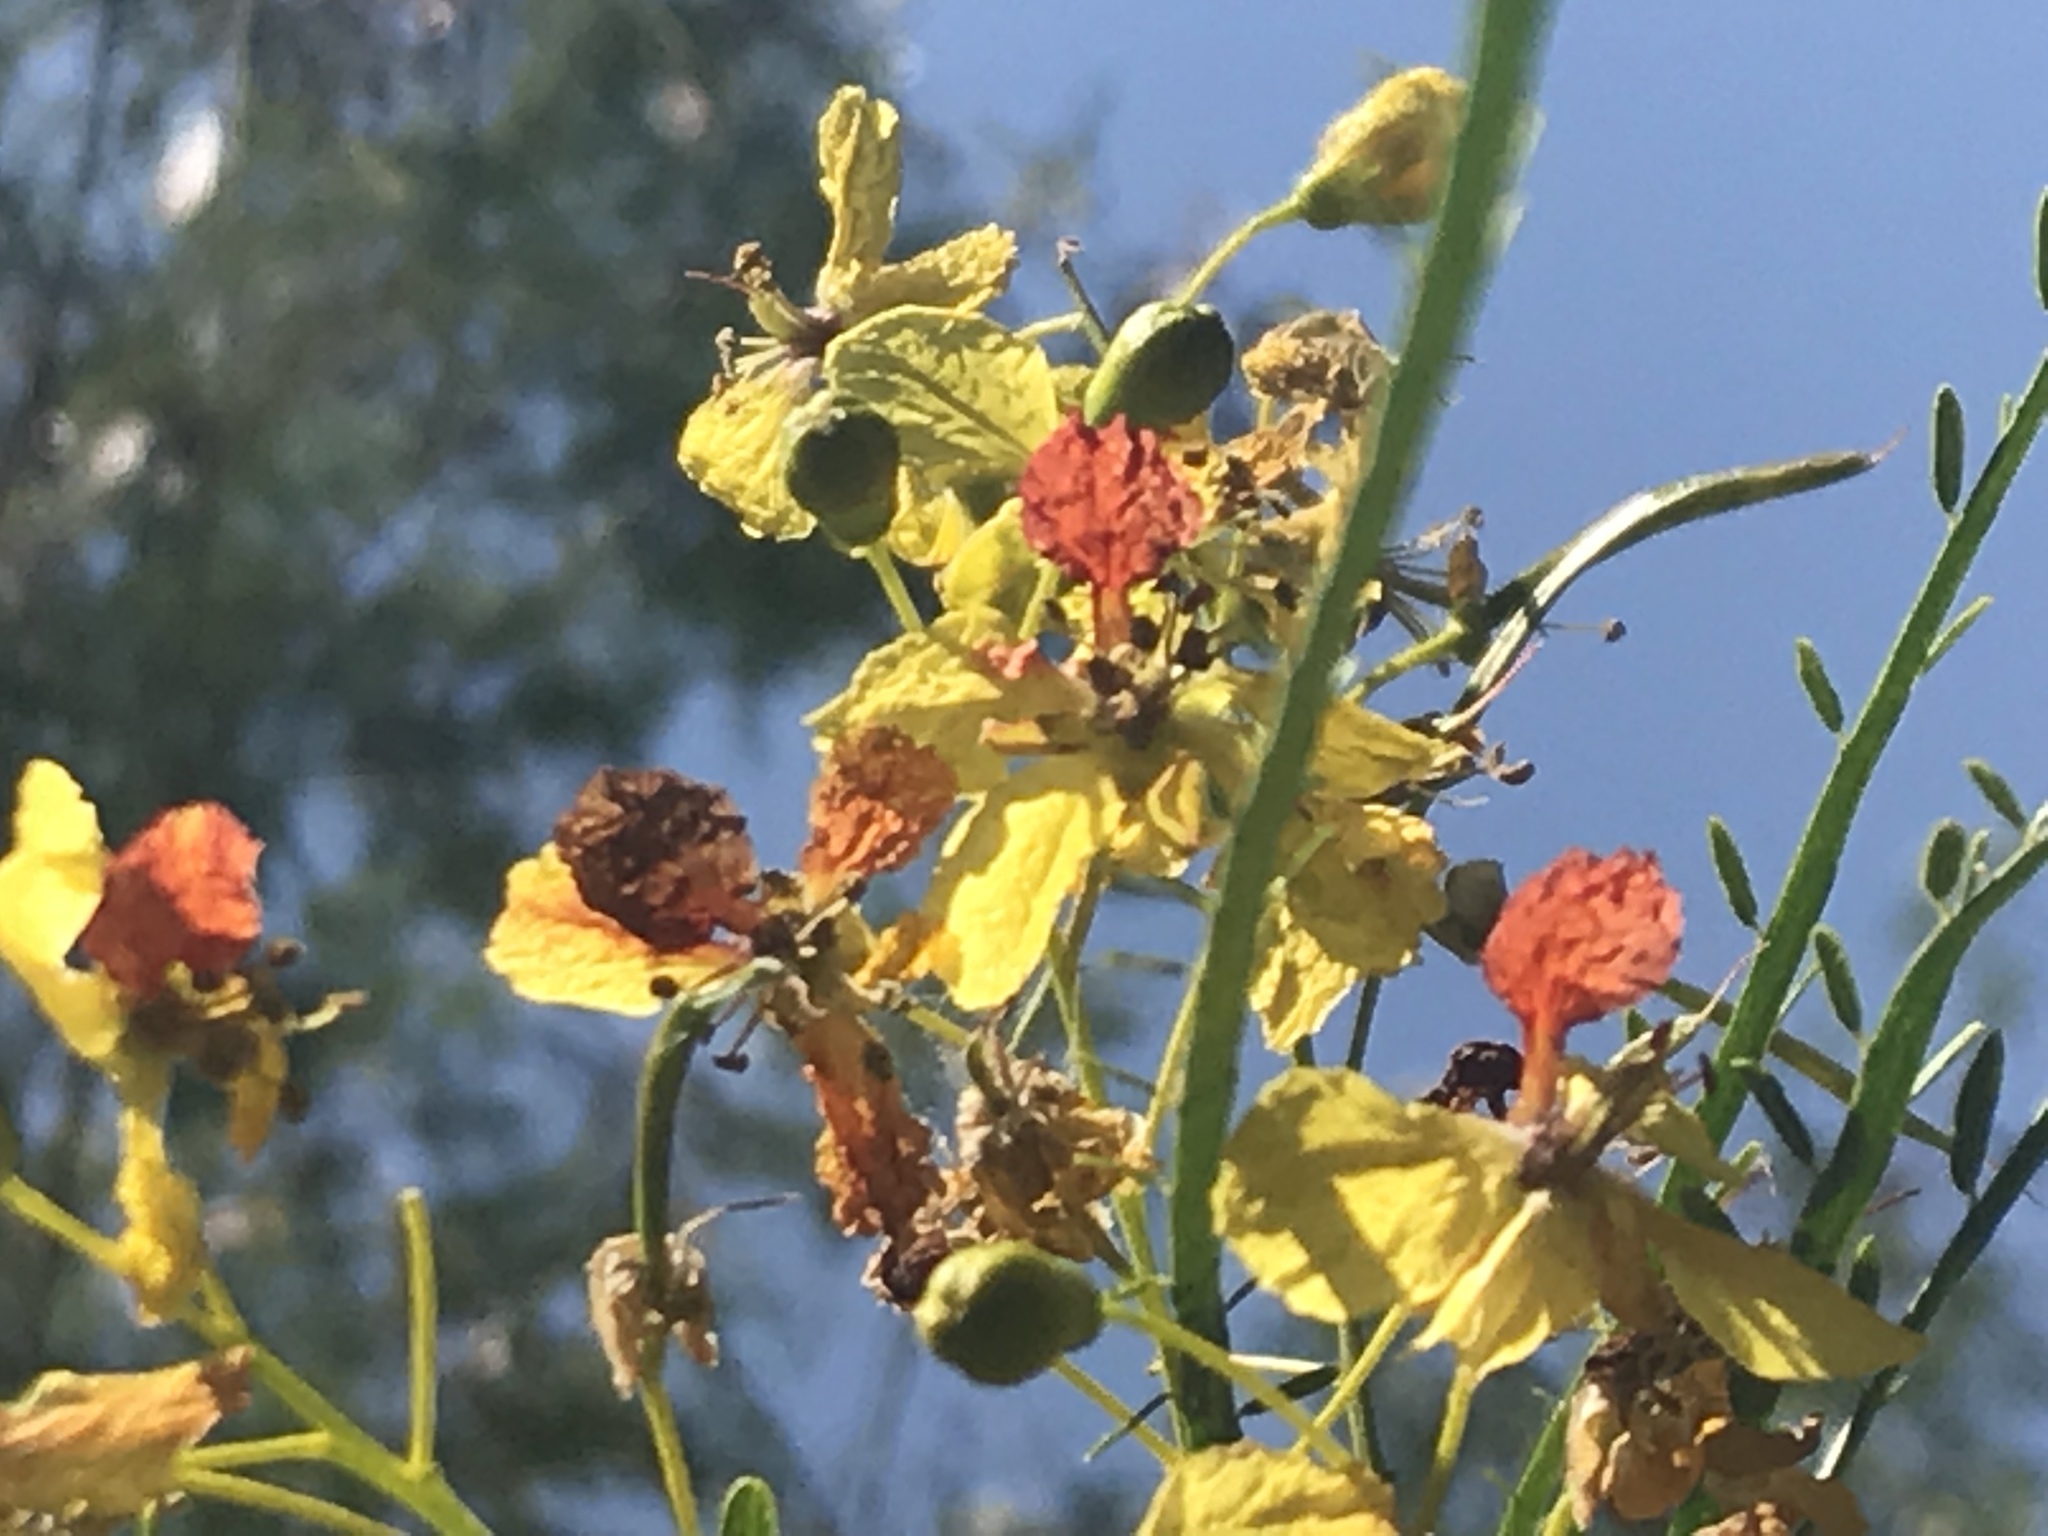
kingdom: Plantae
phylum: Tracheophyta
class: Magnoliopsida
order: Fabales
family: Fabaceae
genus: Parkinsonia
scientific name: Parkinsonia aculeata
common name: Jerusalem thorn
